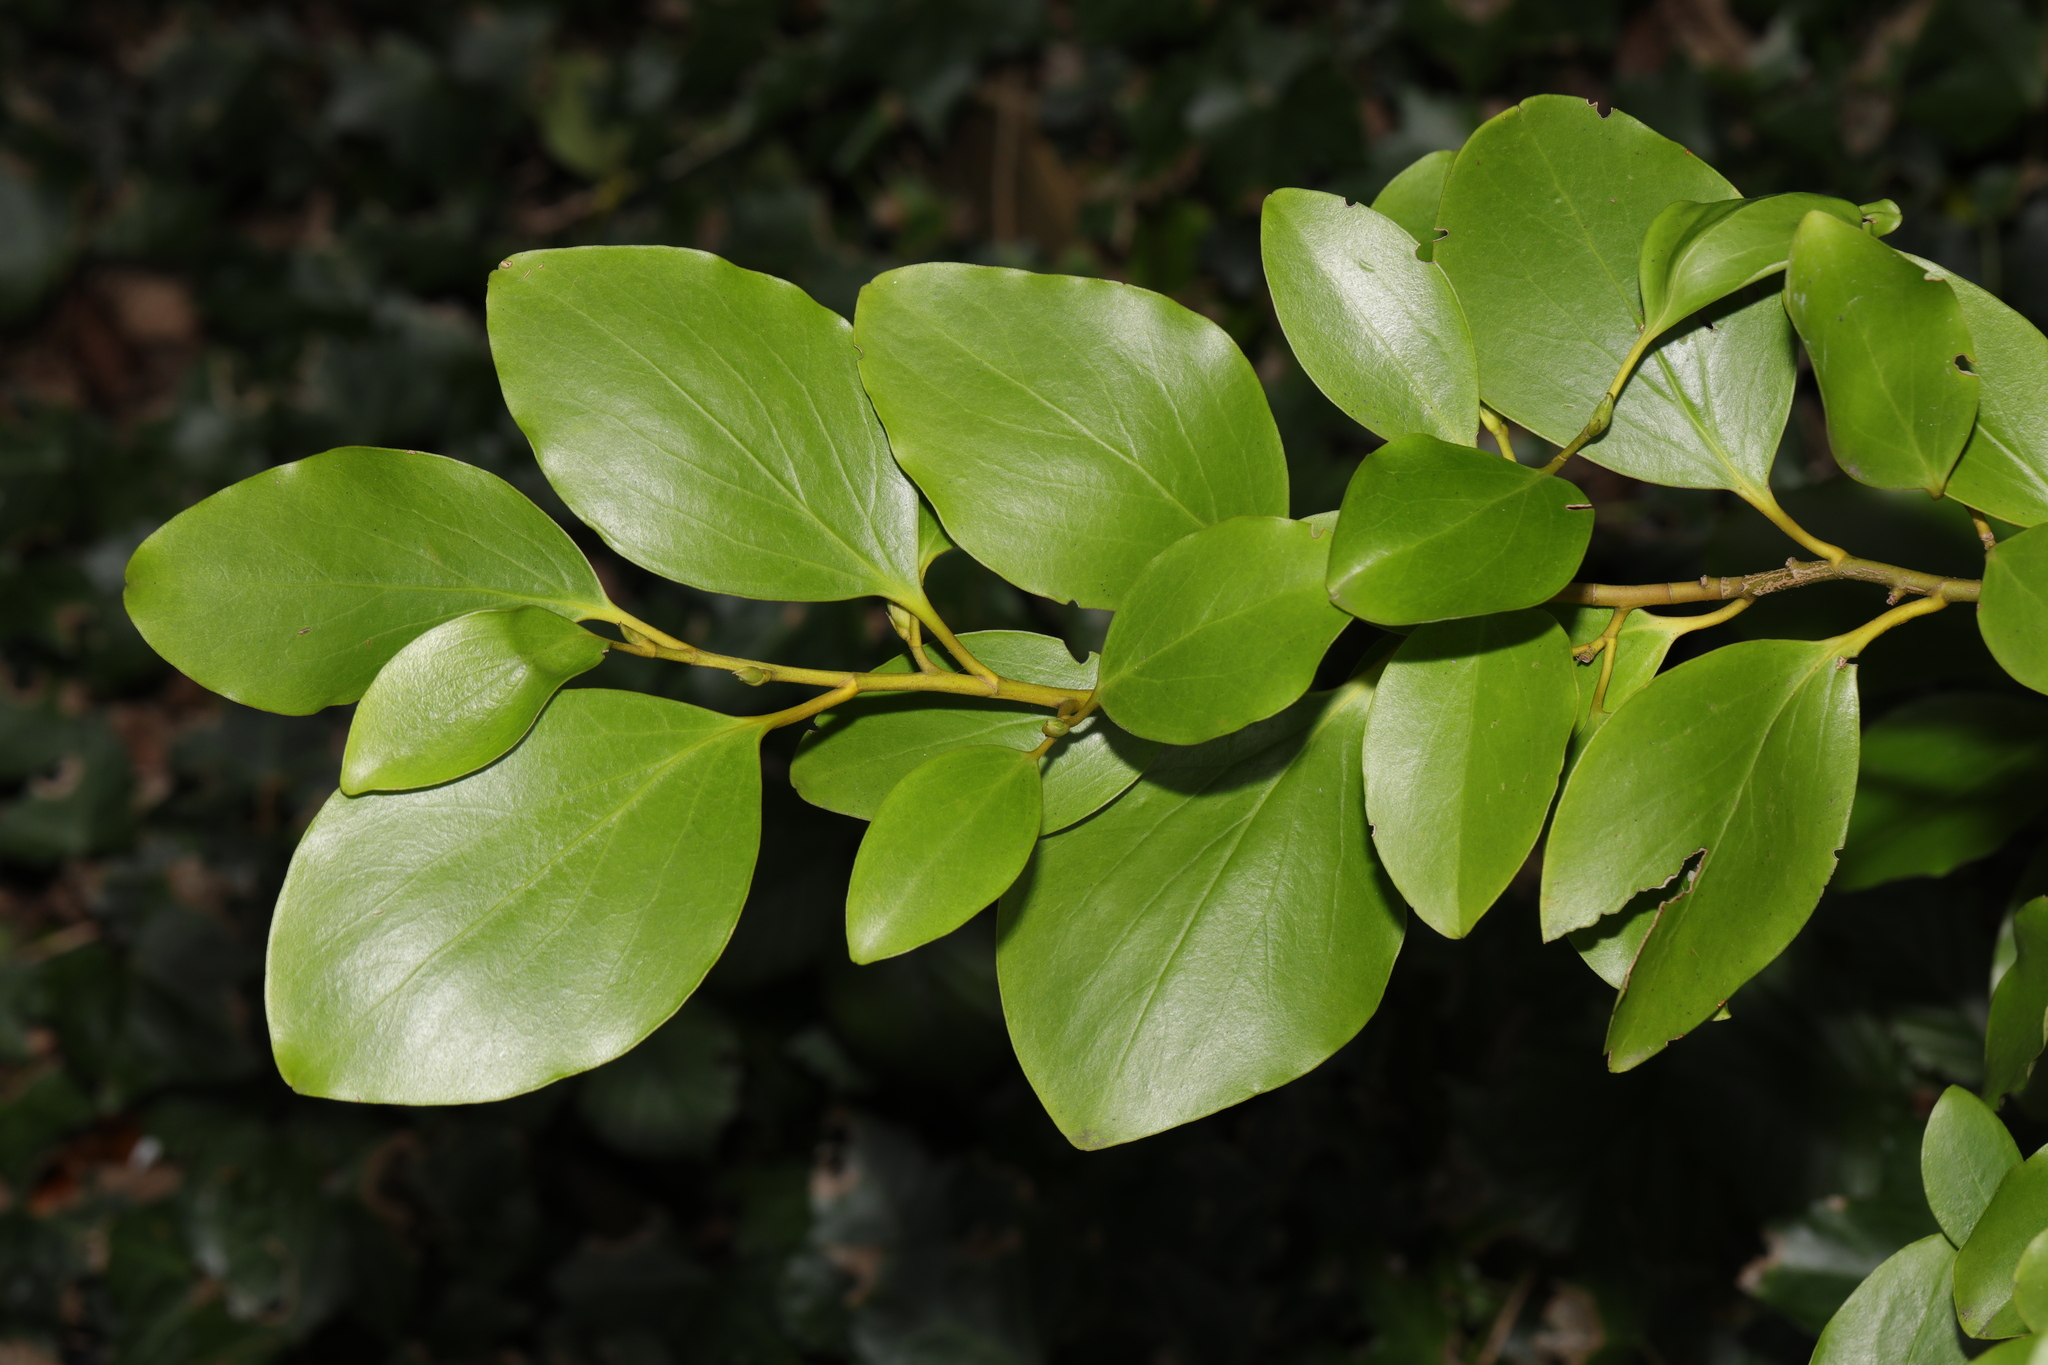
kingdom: Plantae
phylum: Tracheophyta
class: Magnoliopsida
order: Apiales
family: Griseliniaceae
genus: Griselinia
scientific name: Griselinia littoralis
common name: New zealand broadleaf
